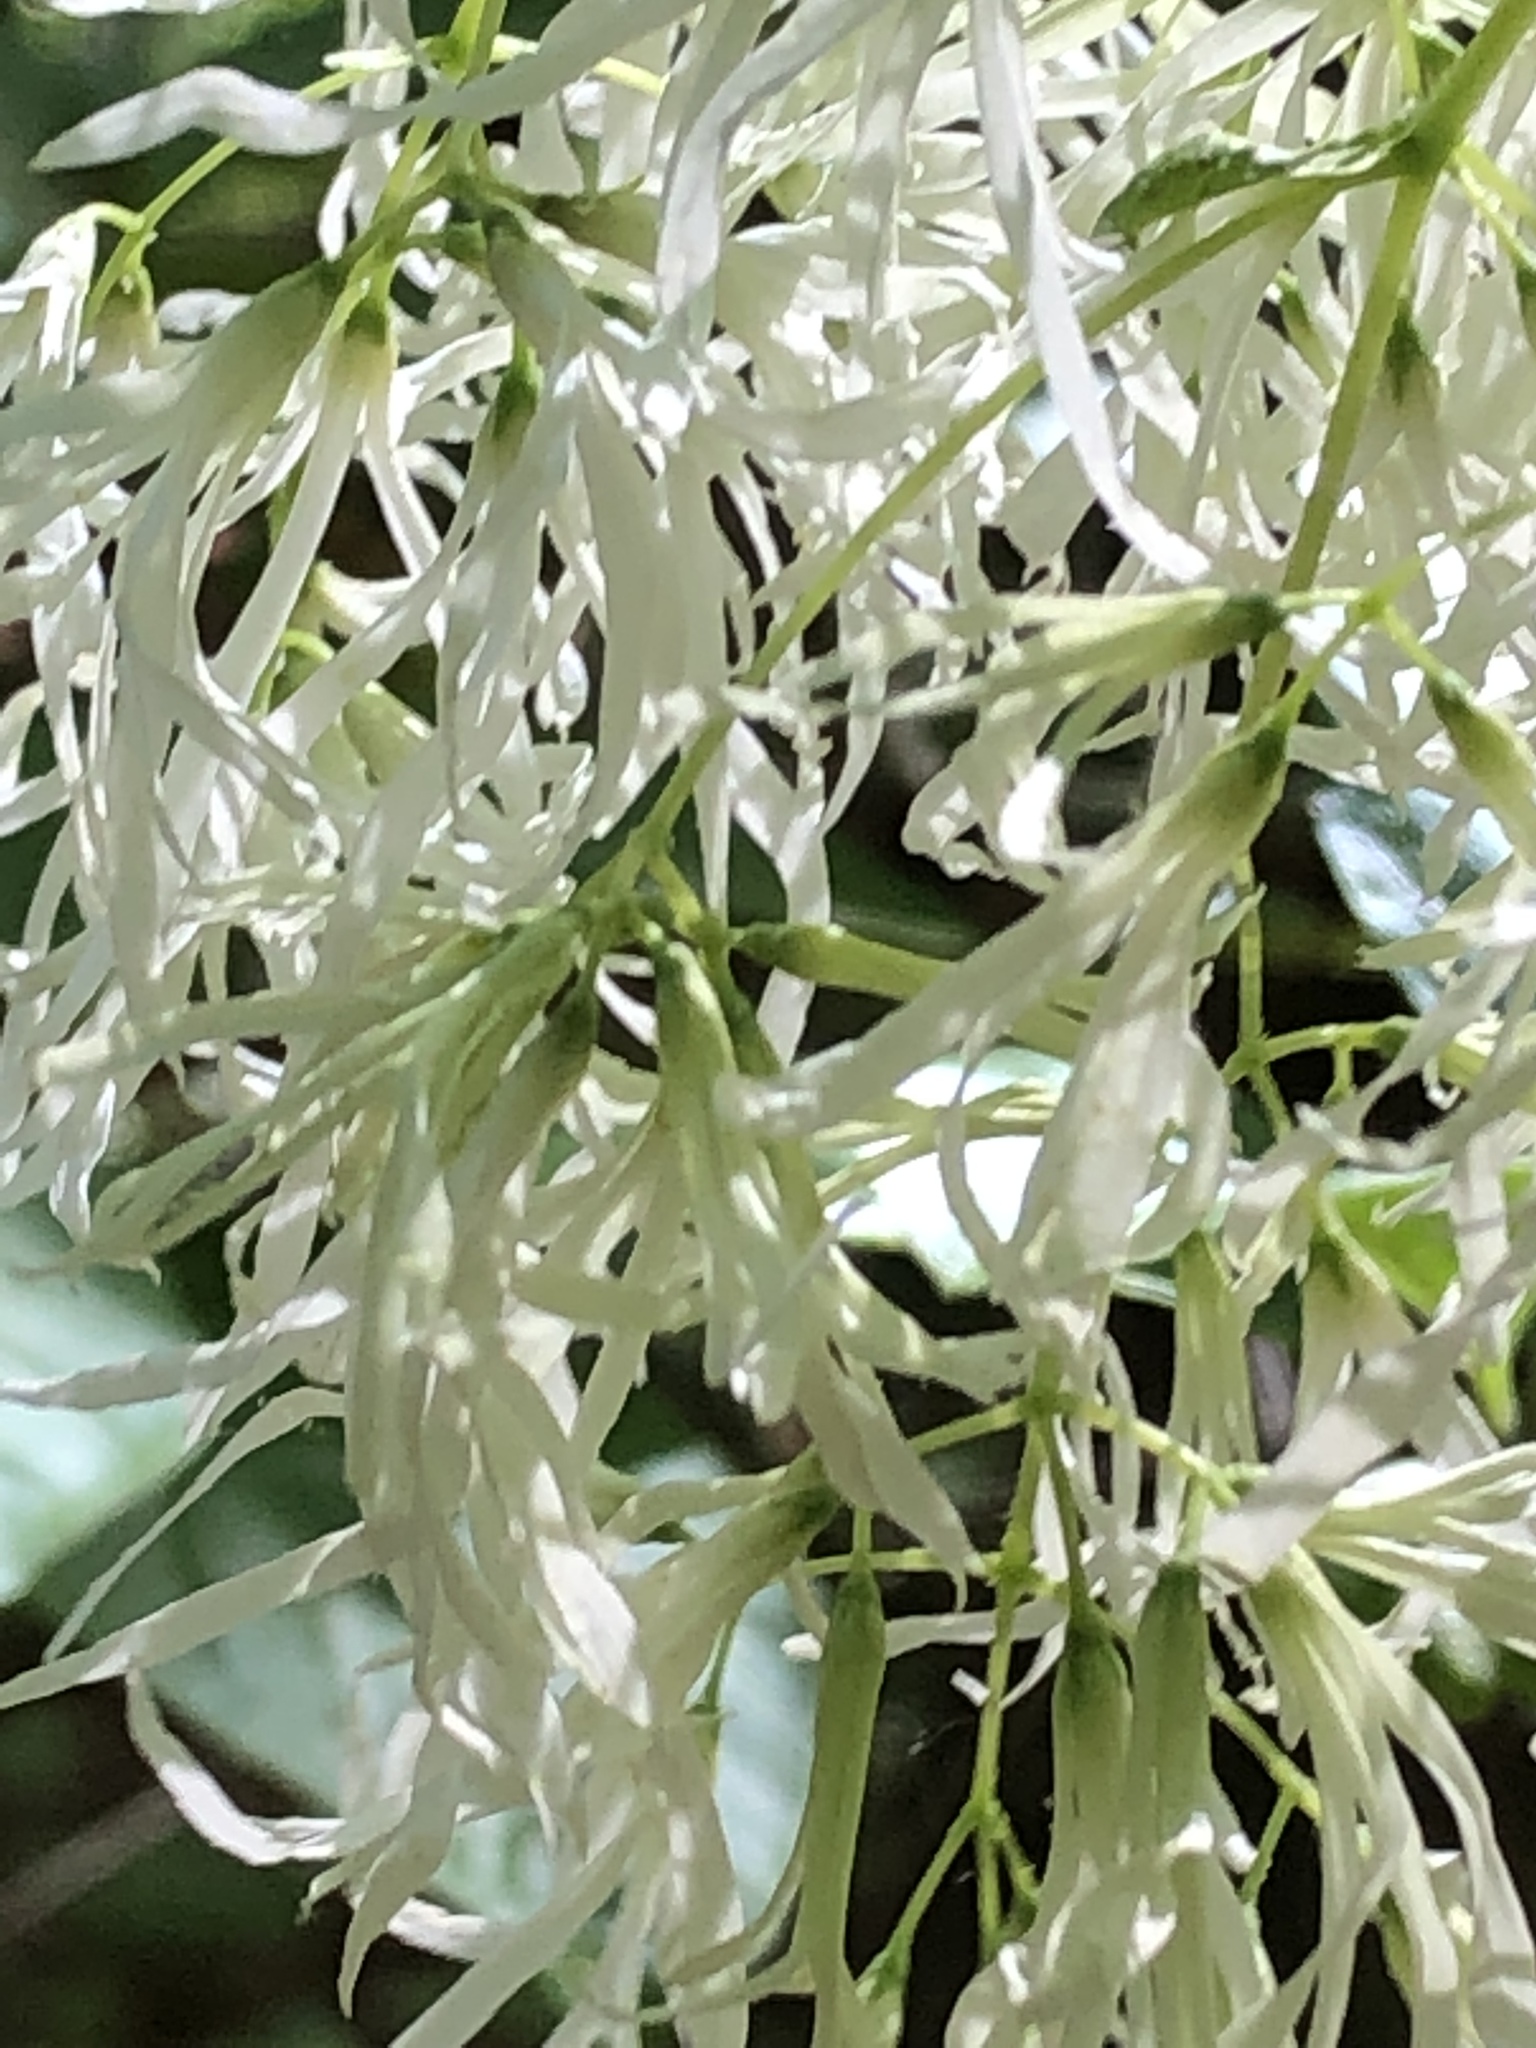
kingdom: Plantae
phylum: Tracheophyta
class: Magnoliopsida
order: Lamiales
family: Oleaceae
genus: Chionanthus
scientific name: Chionanthus virginicus
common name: American fringetree
